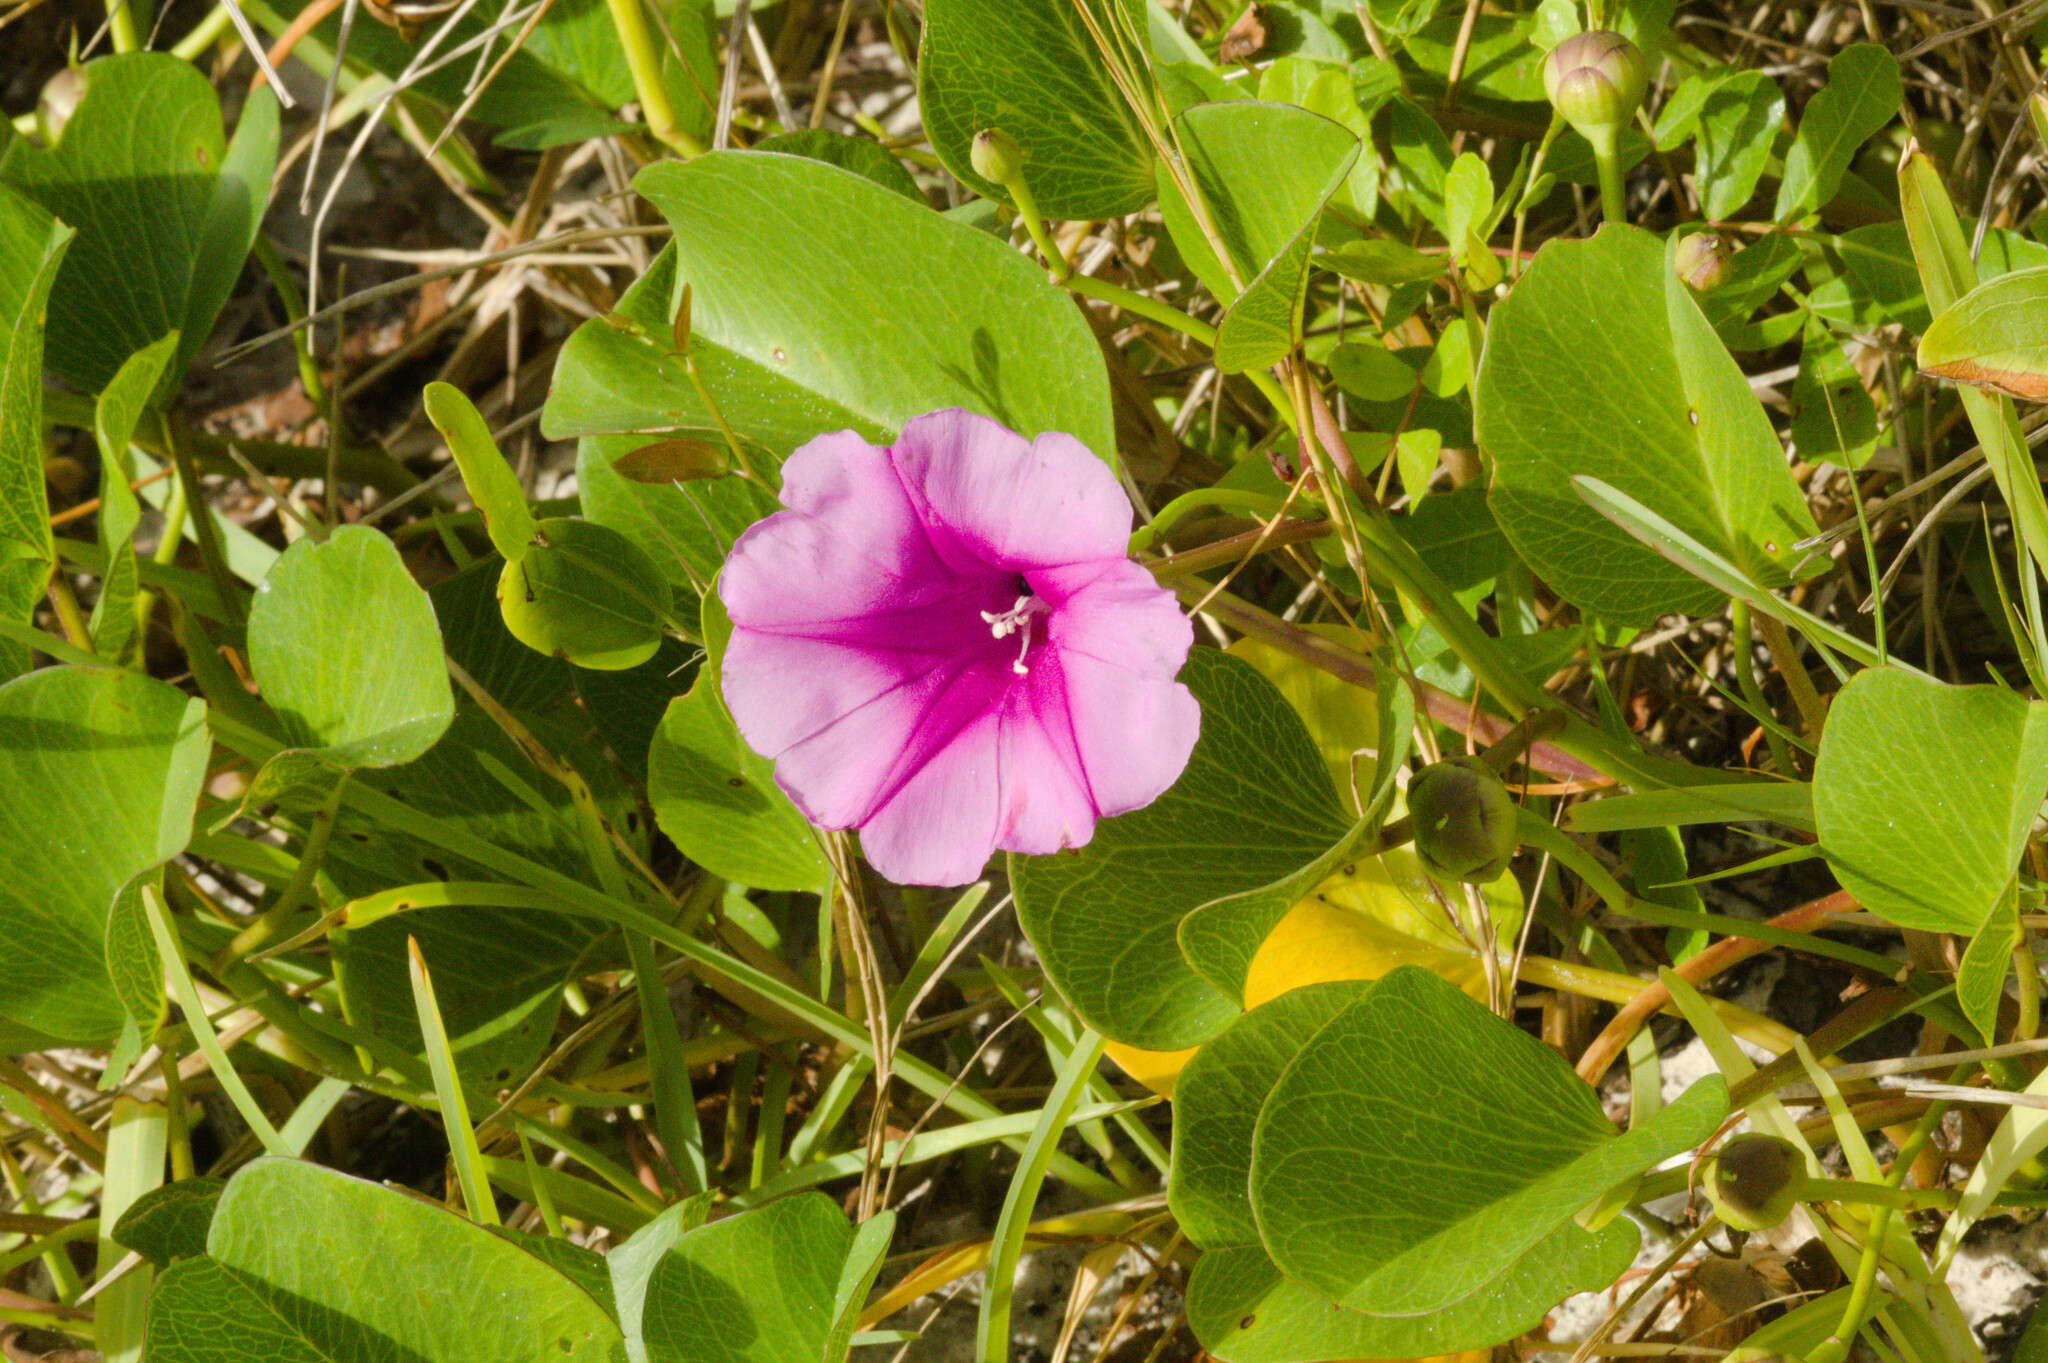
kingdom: Plantae
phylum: Tracheophyta
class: Magnoliopsida
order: Solanales
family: Convolvulaceae
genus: Ipomoea
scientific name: Ipomoea pes-caprae
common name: Beach morning glory
